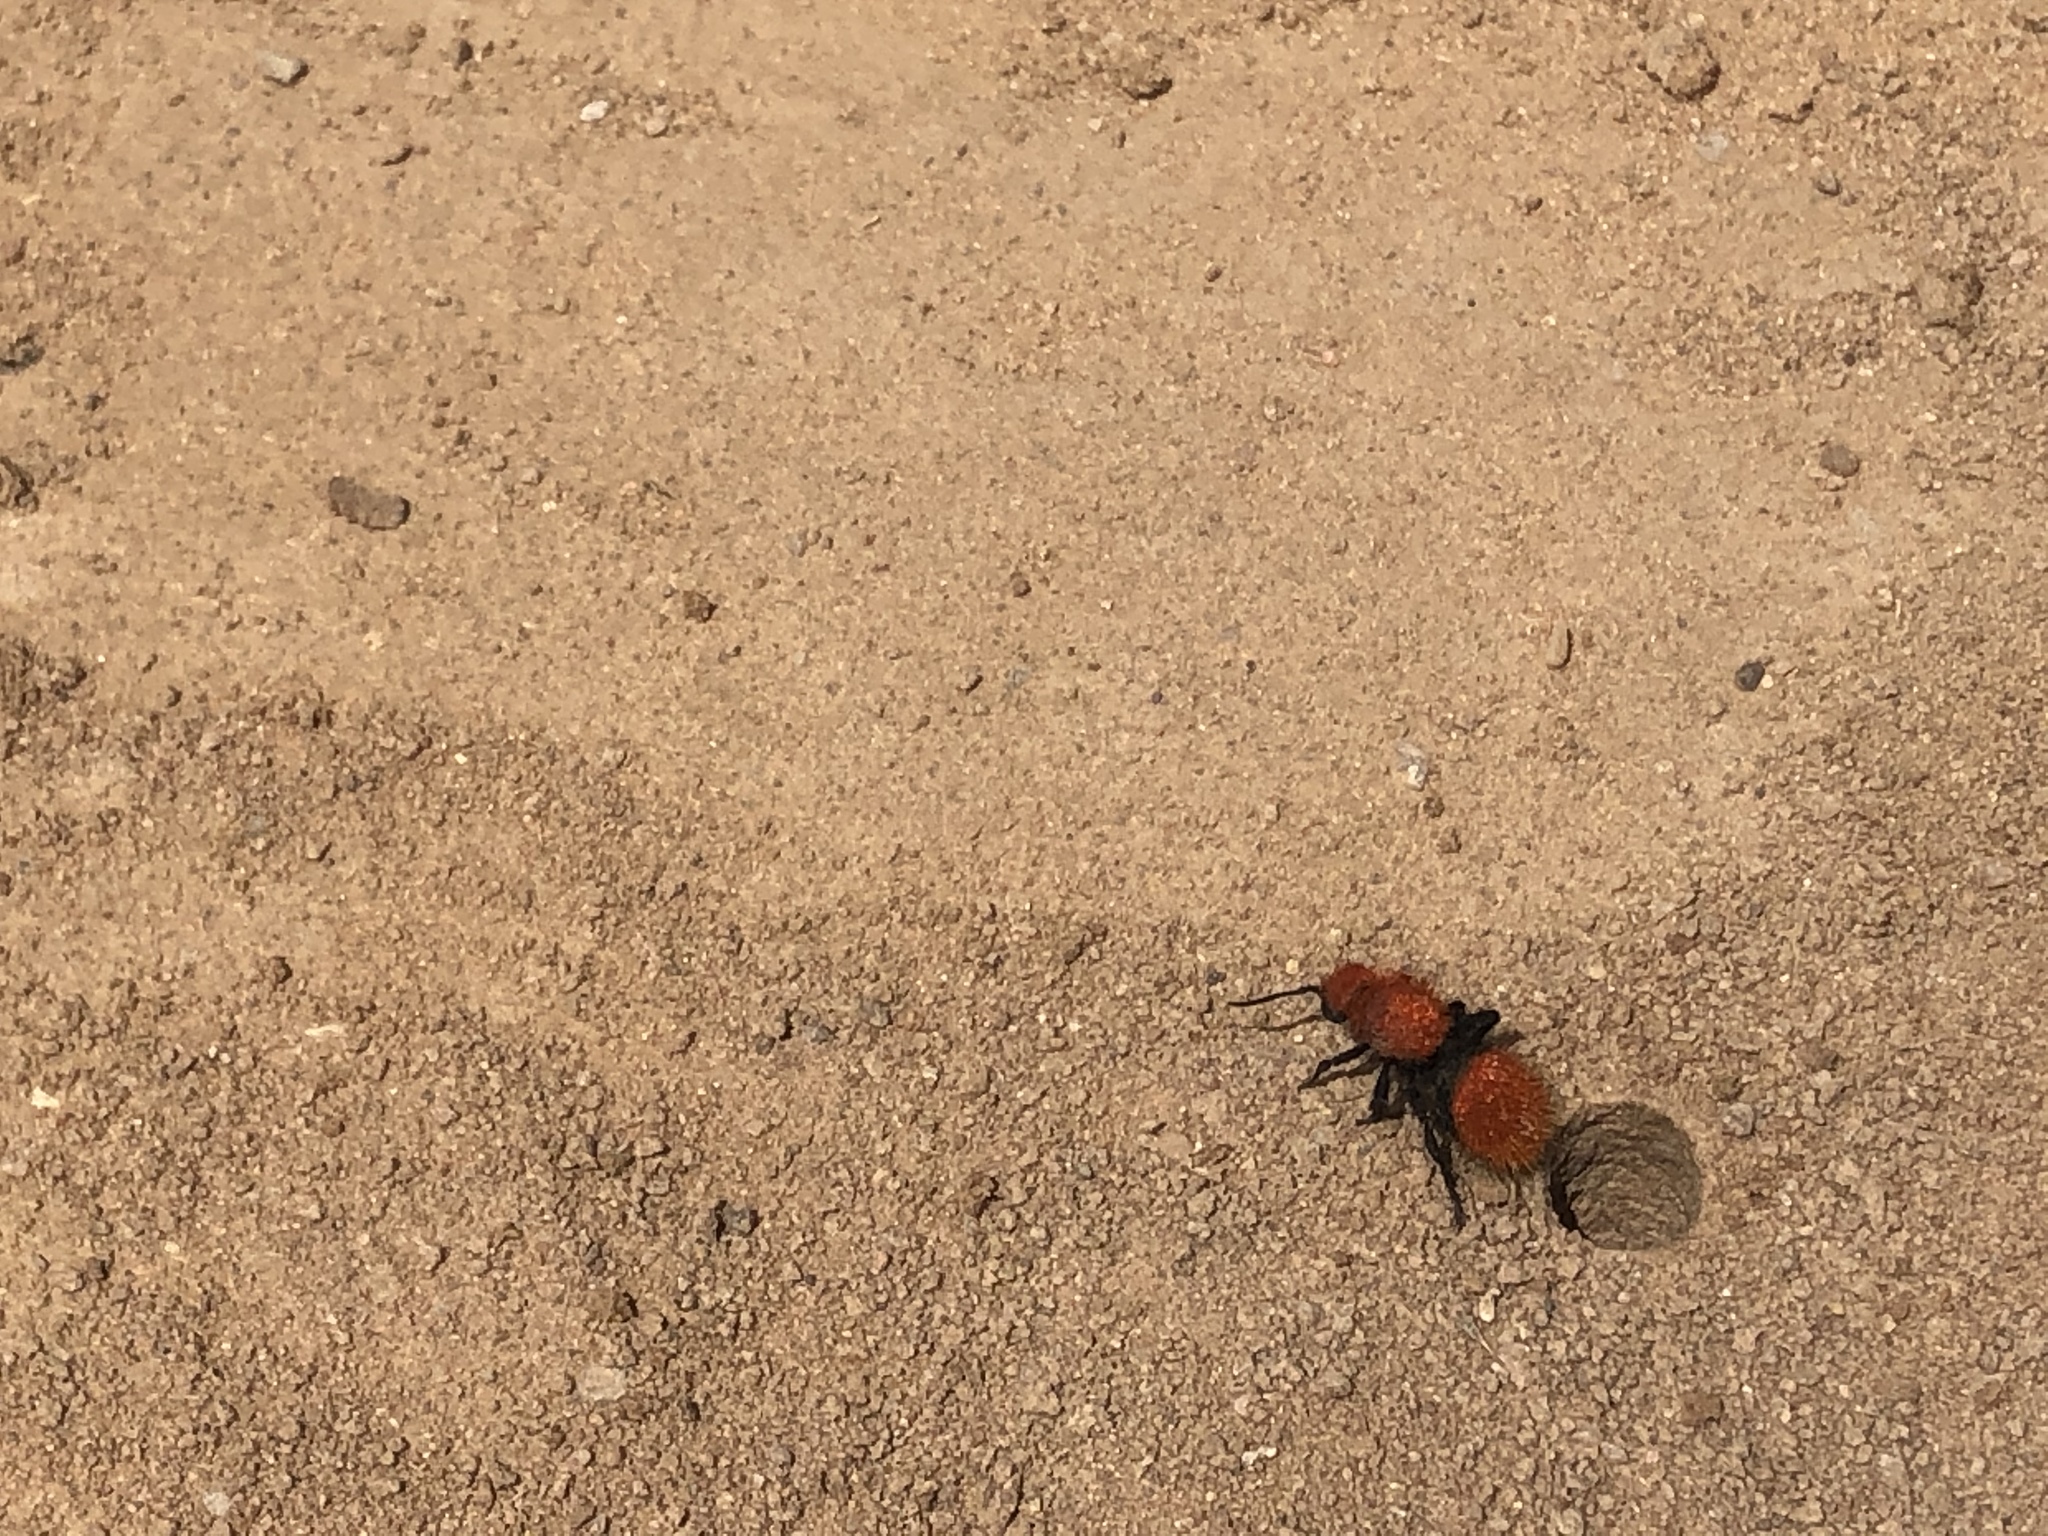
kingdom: Animalia
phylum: Arthropoda
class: Insecta
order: Hymenoptera
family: Mutillidae
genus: Dasymutilla
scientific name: Dasymutilla vestita
